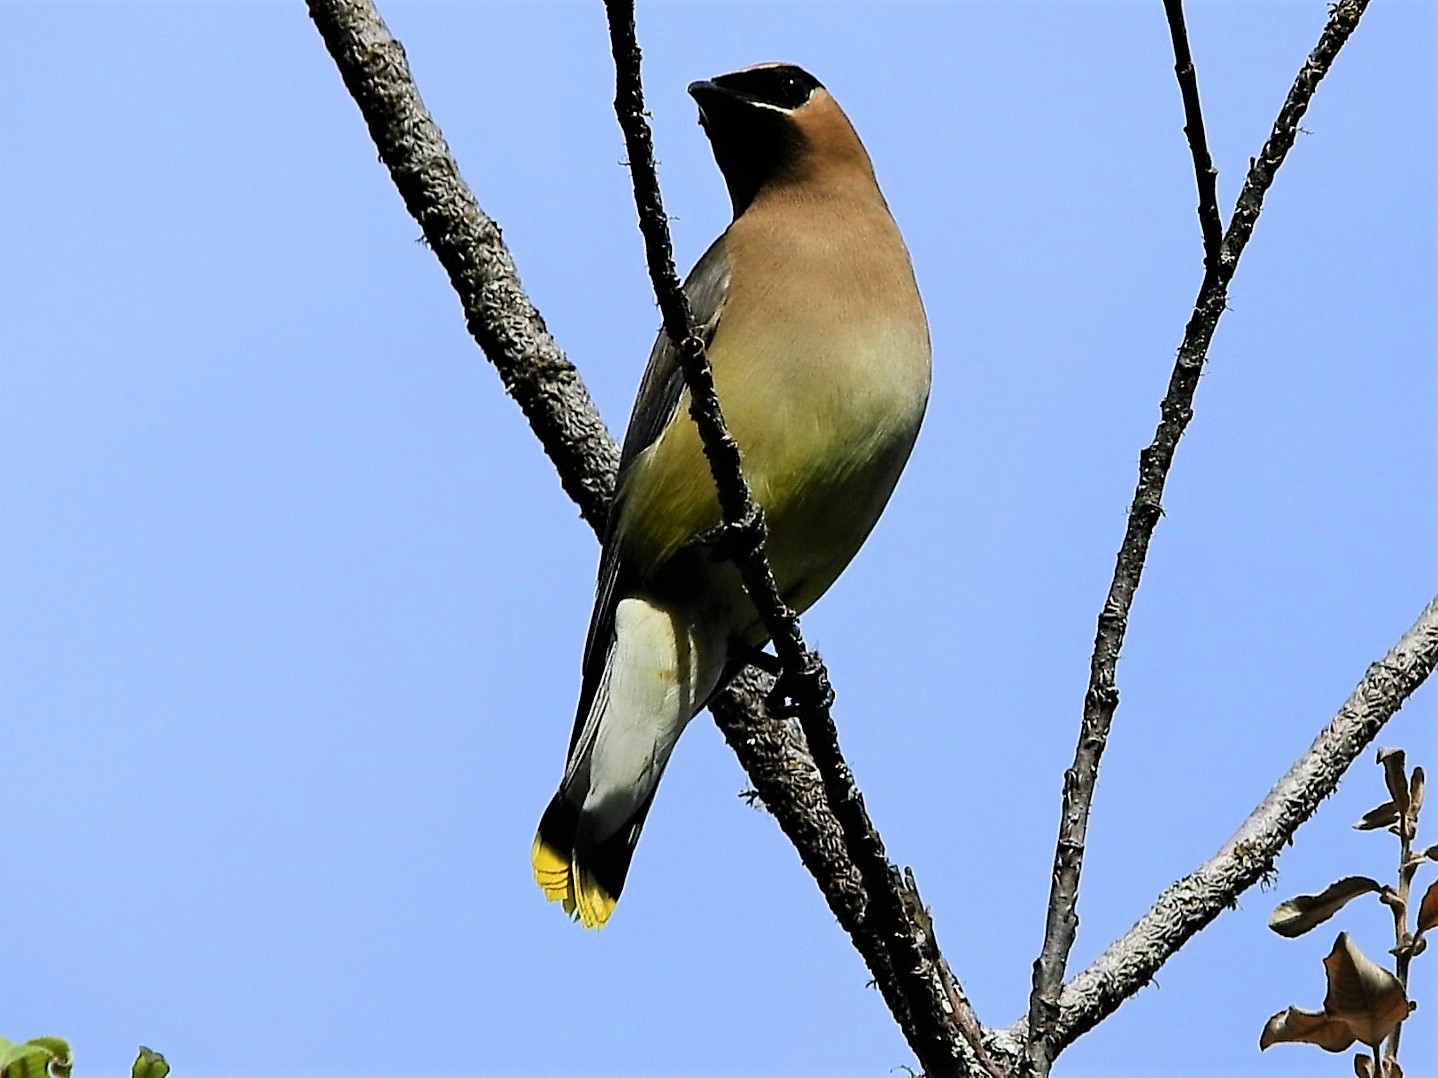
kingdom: Animalia
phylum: Chordata
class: Aves
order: Passeriformes
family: Bombycillidae
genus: Bombycilla
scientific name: Bombycilla cedrorum
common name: Cedar waxwing
